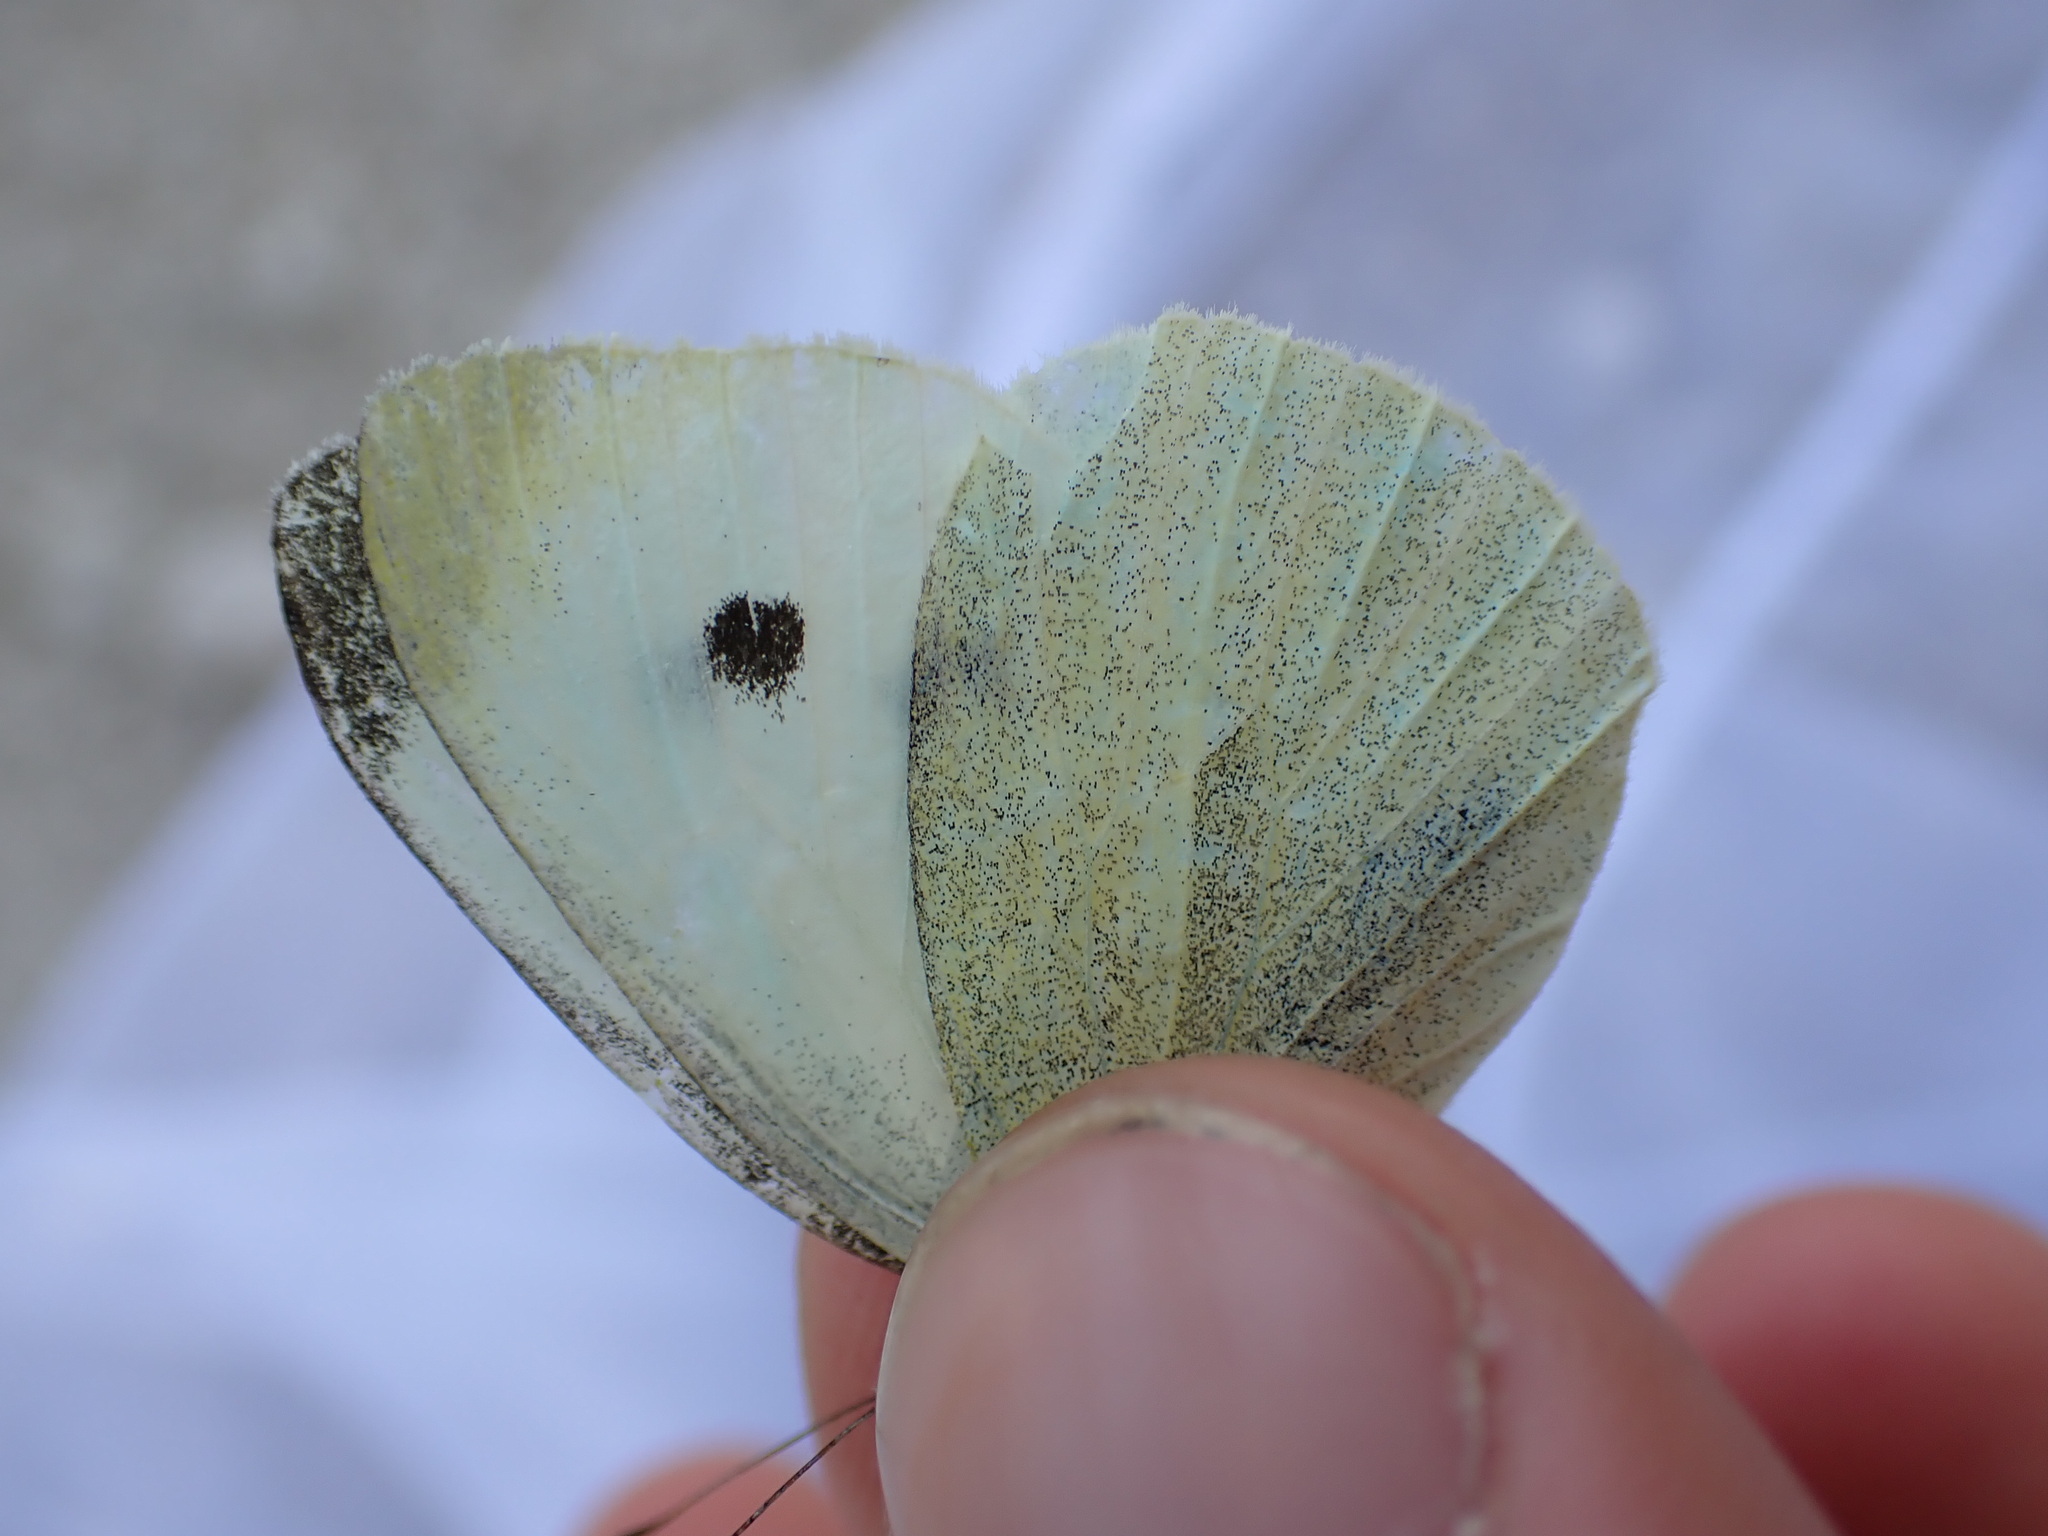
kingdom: Animalia
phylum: Arthropoda
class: Insecta
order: Lepidoptera
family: Pieridae
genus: Pieris
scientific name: Pieris rapae
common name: Small white
